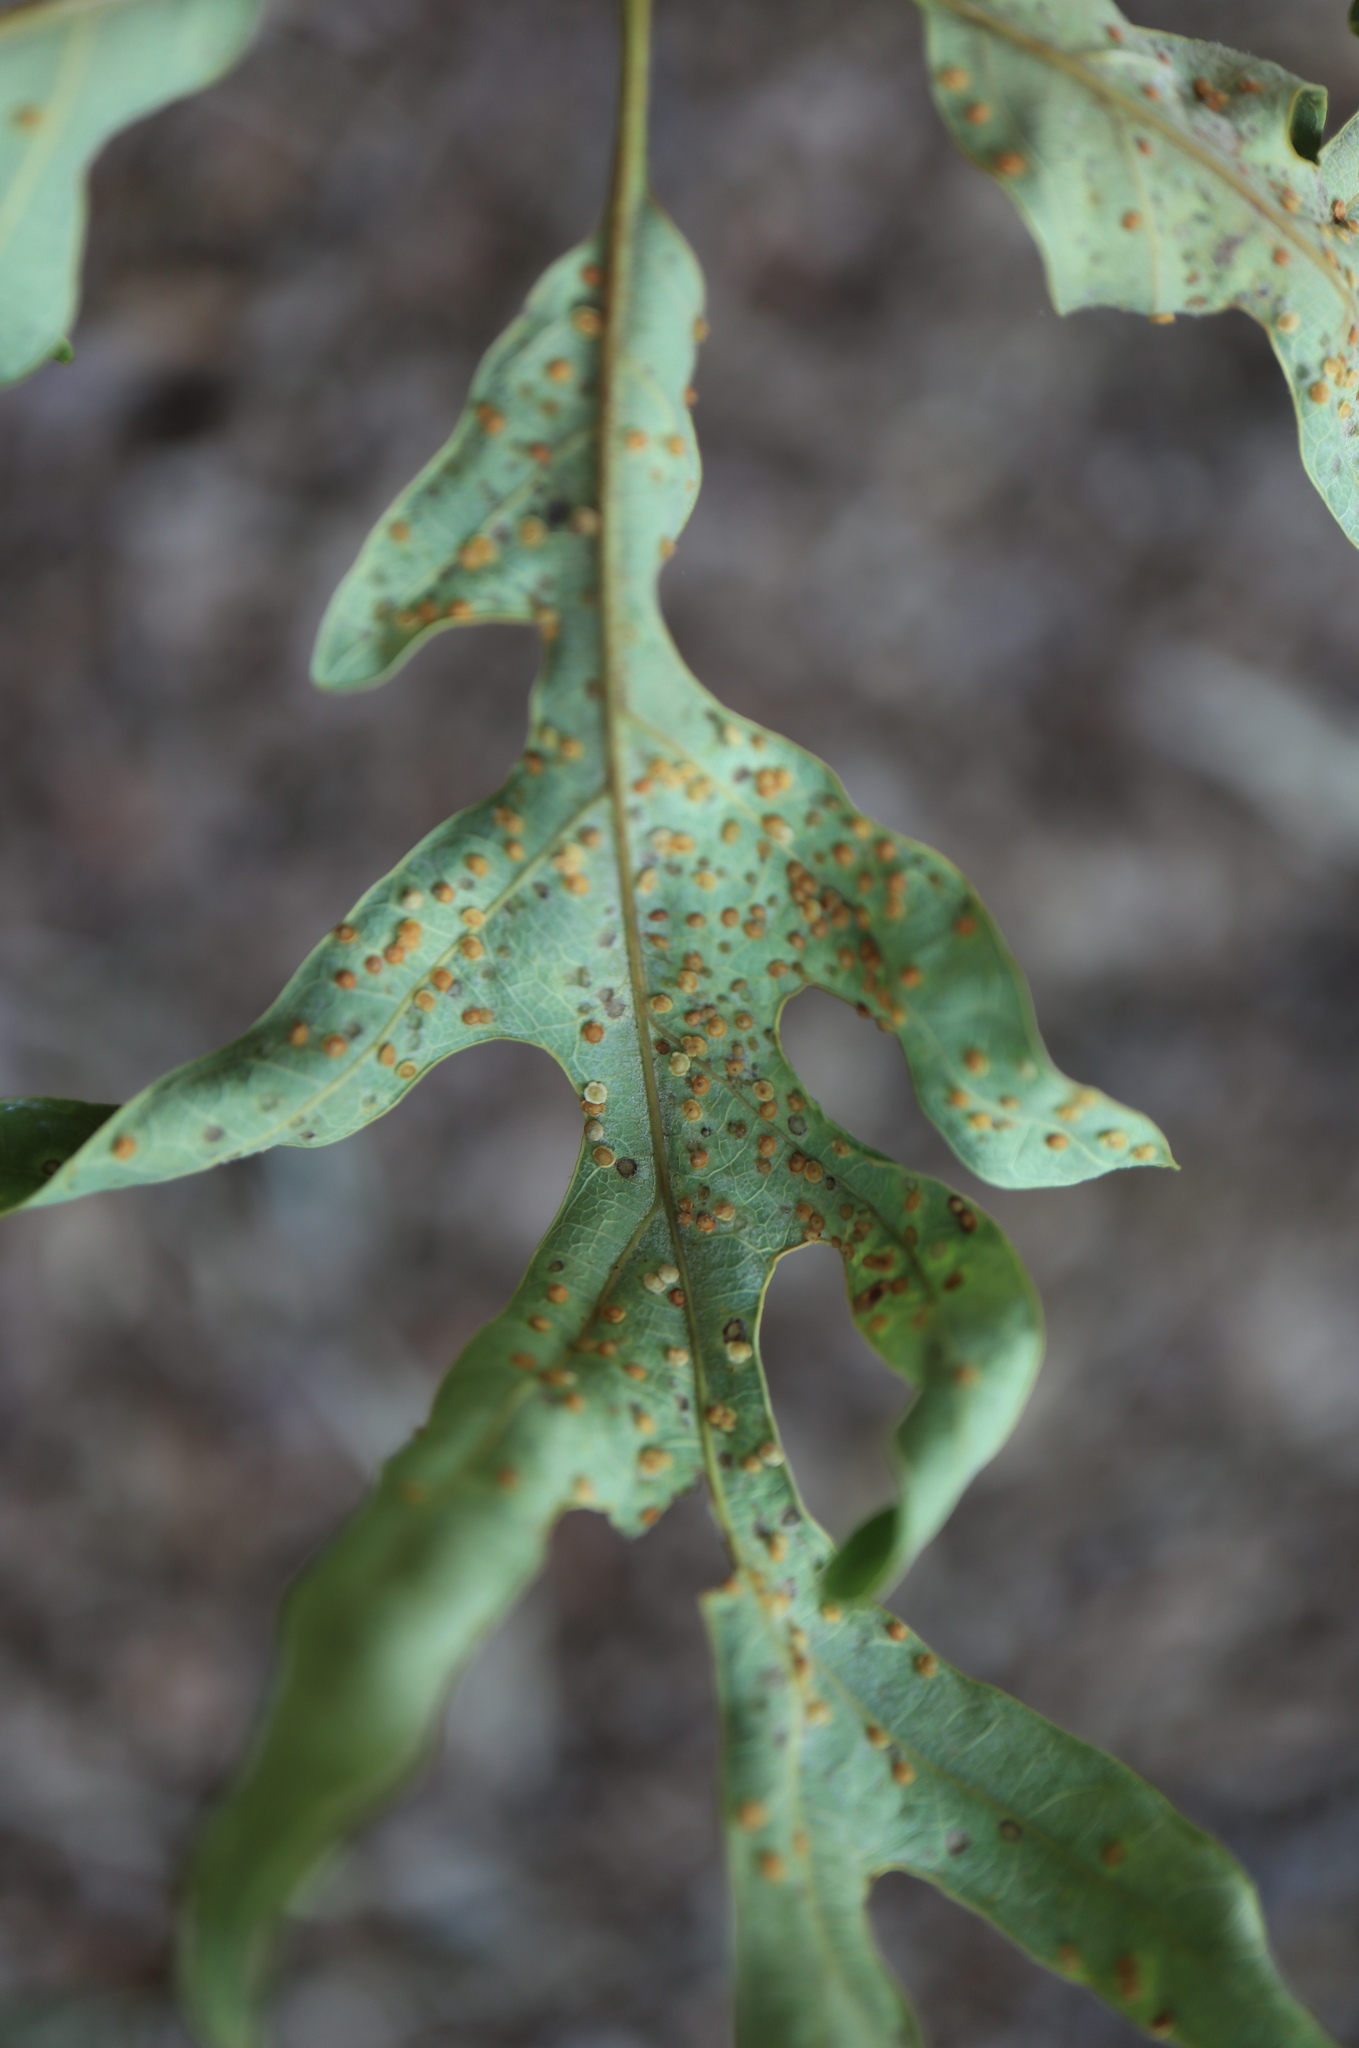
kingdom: Animalia
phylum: Arthropoda
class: Insecta
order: Hymenoptera
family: Cynipidae
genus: Neuroterus
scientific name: Neuroterus
